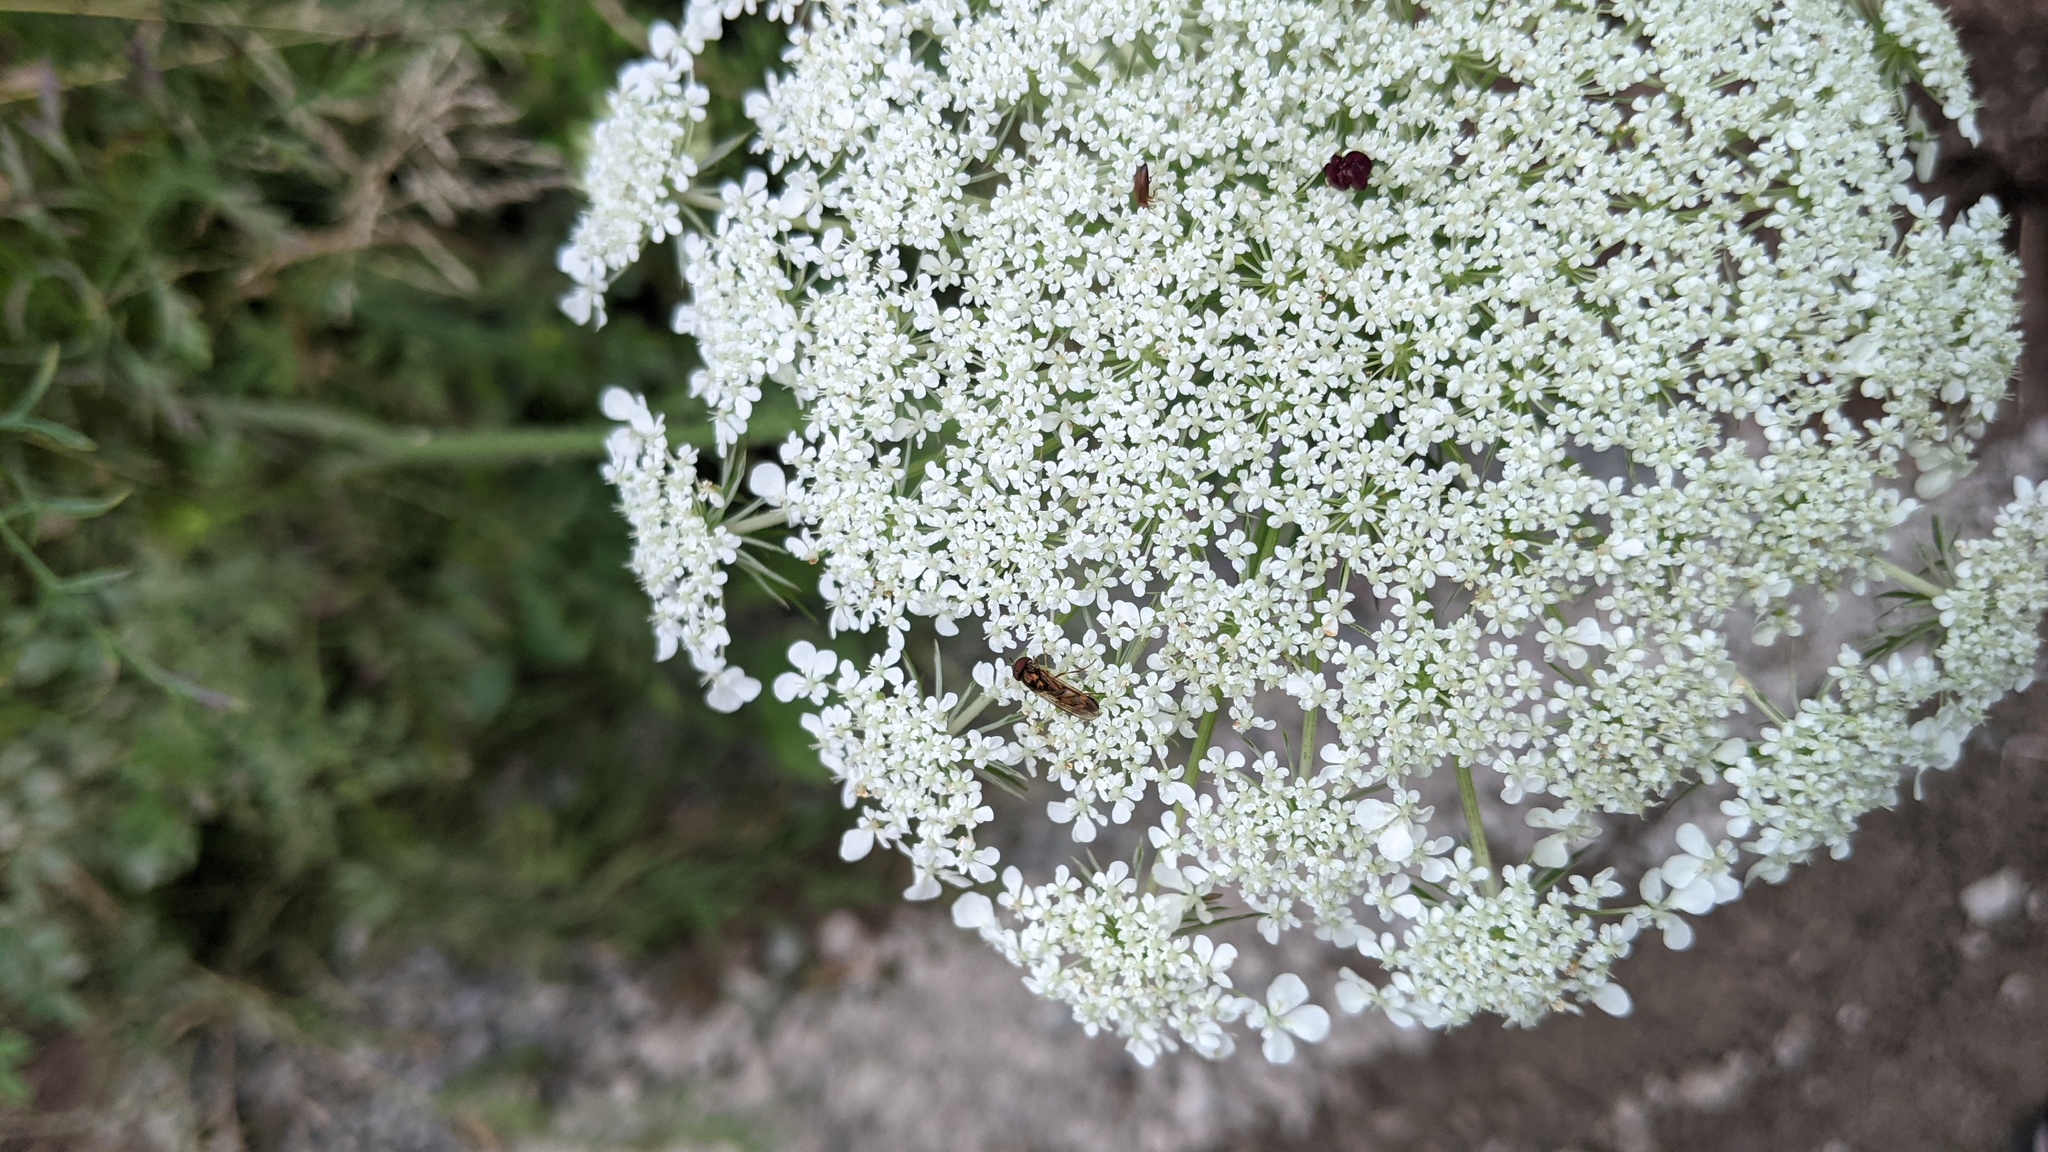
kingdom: Plantae
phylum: Tracheophyta
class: Magnoliopsida
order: Apiales
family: Apiaceae
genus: Daucus
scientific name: Daucus carota
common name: Wild carrot
